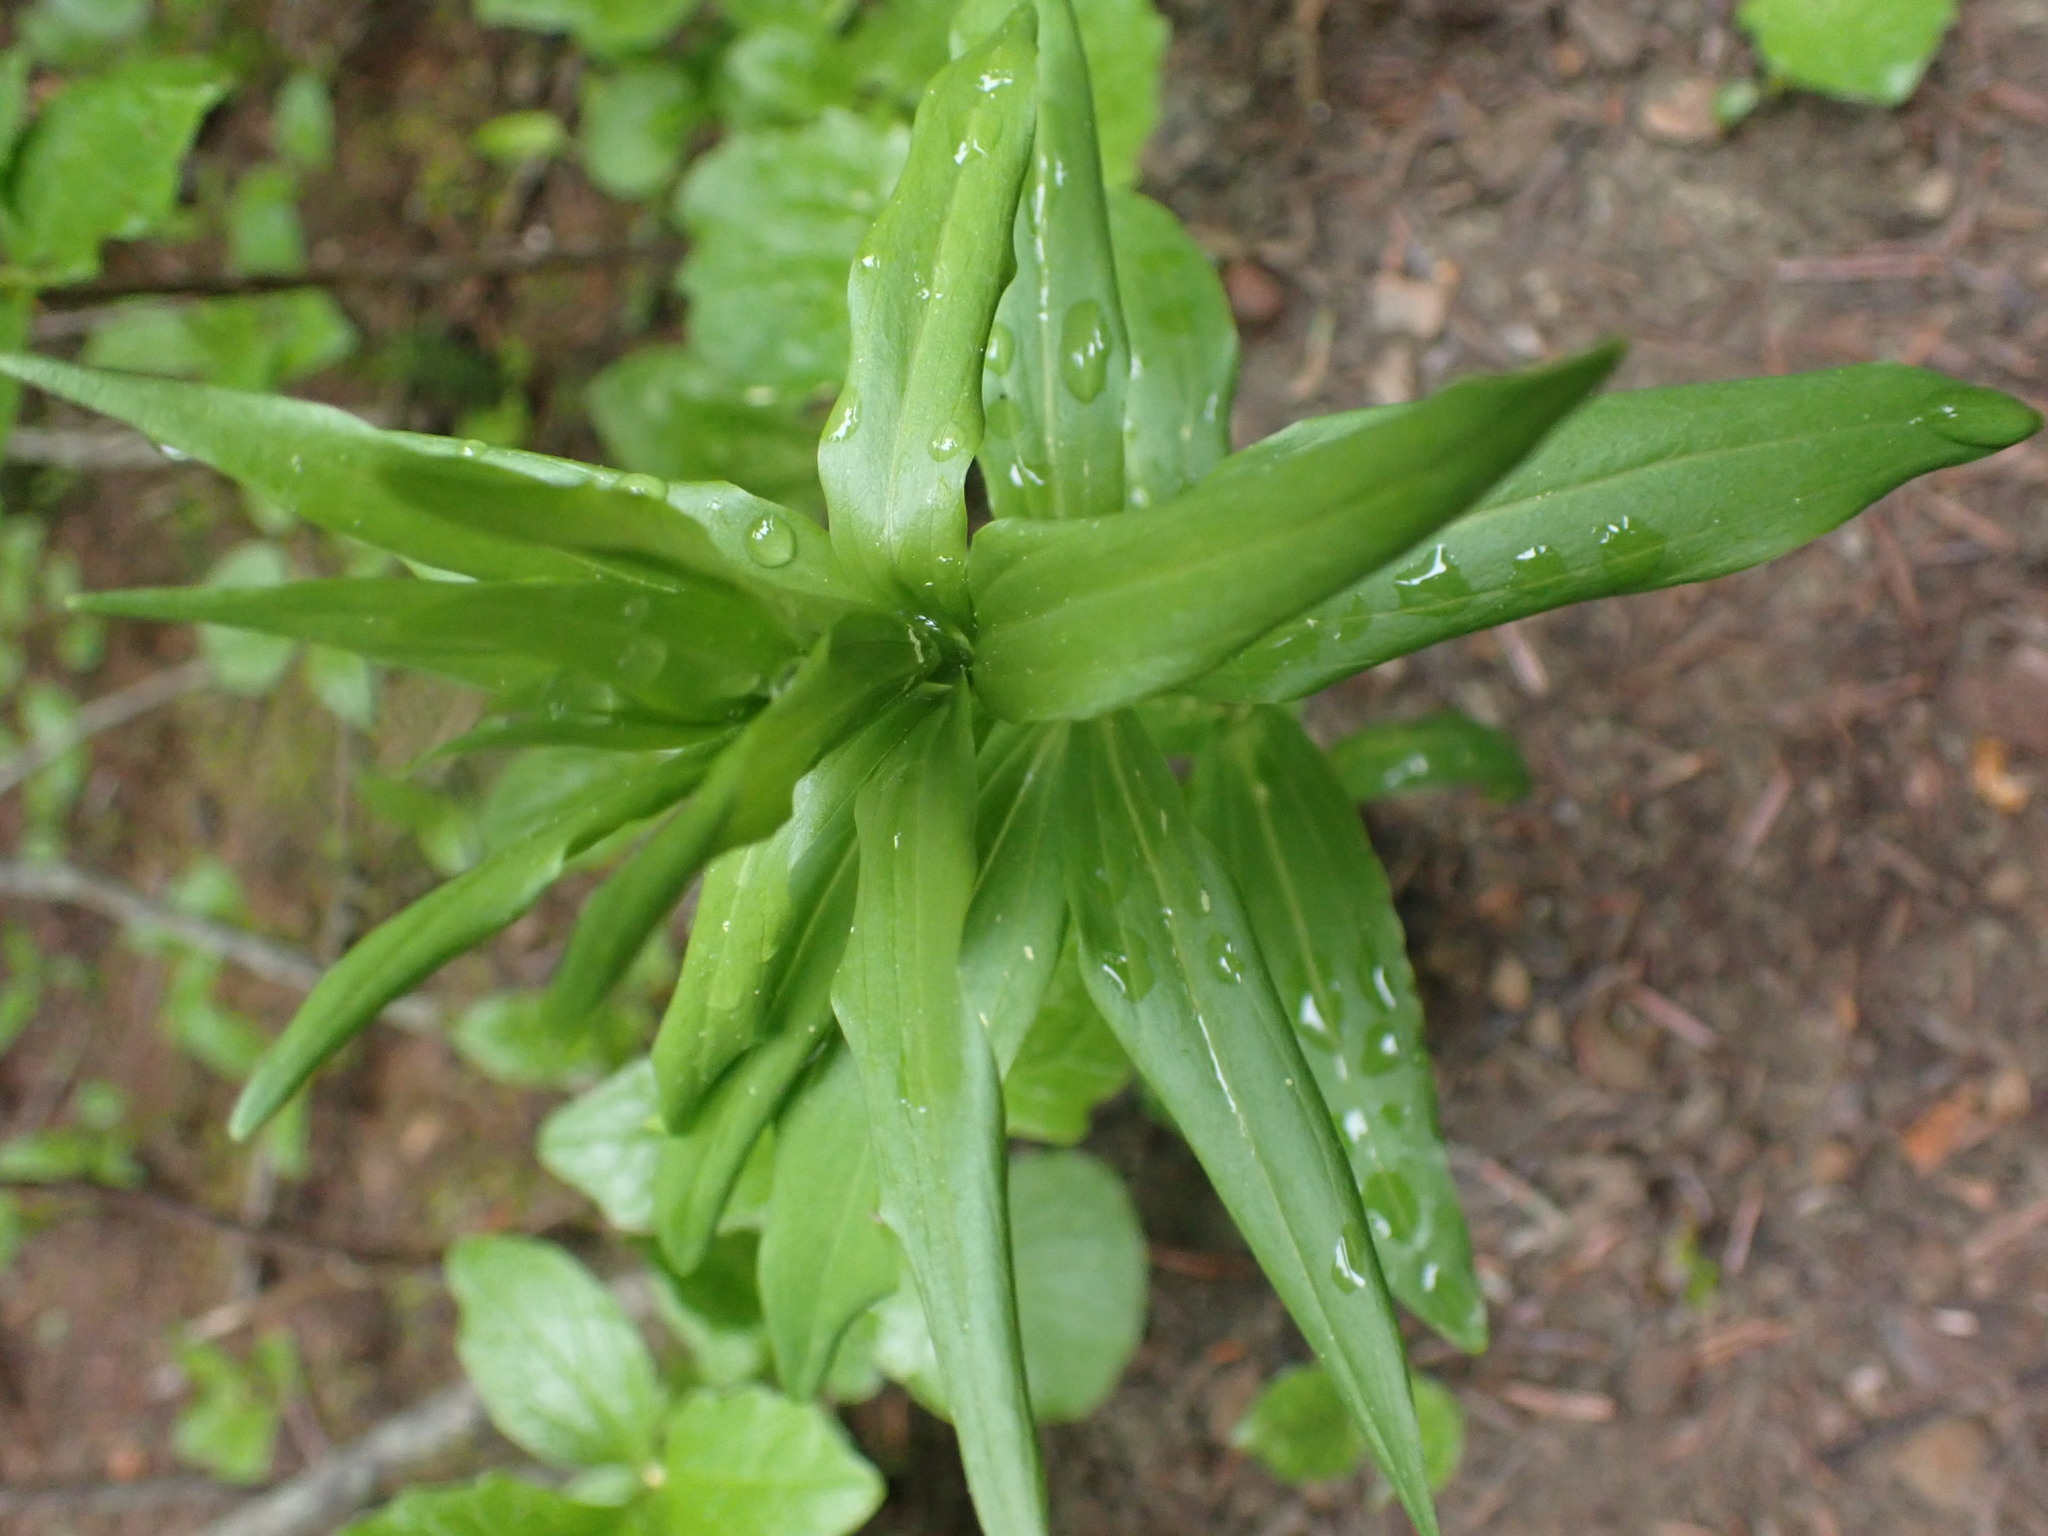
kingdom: Plantae
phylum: Tracheophyta
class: Liliopsida
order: Liliales
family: Liliaceae
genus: Lilium
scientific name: Lilium columbianum
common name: Columbia lily
